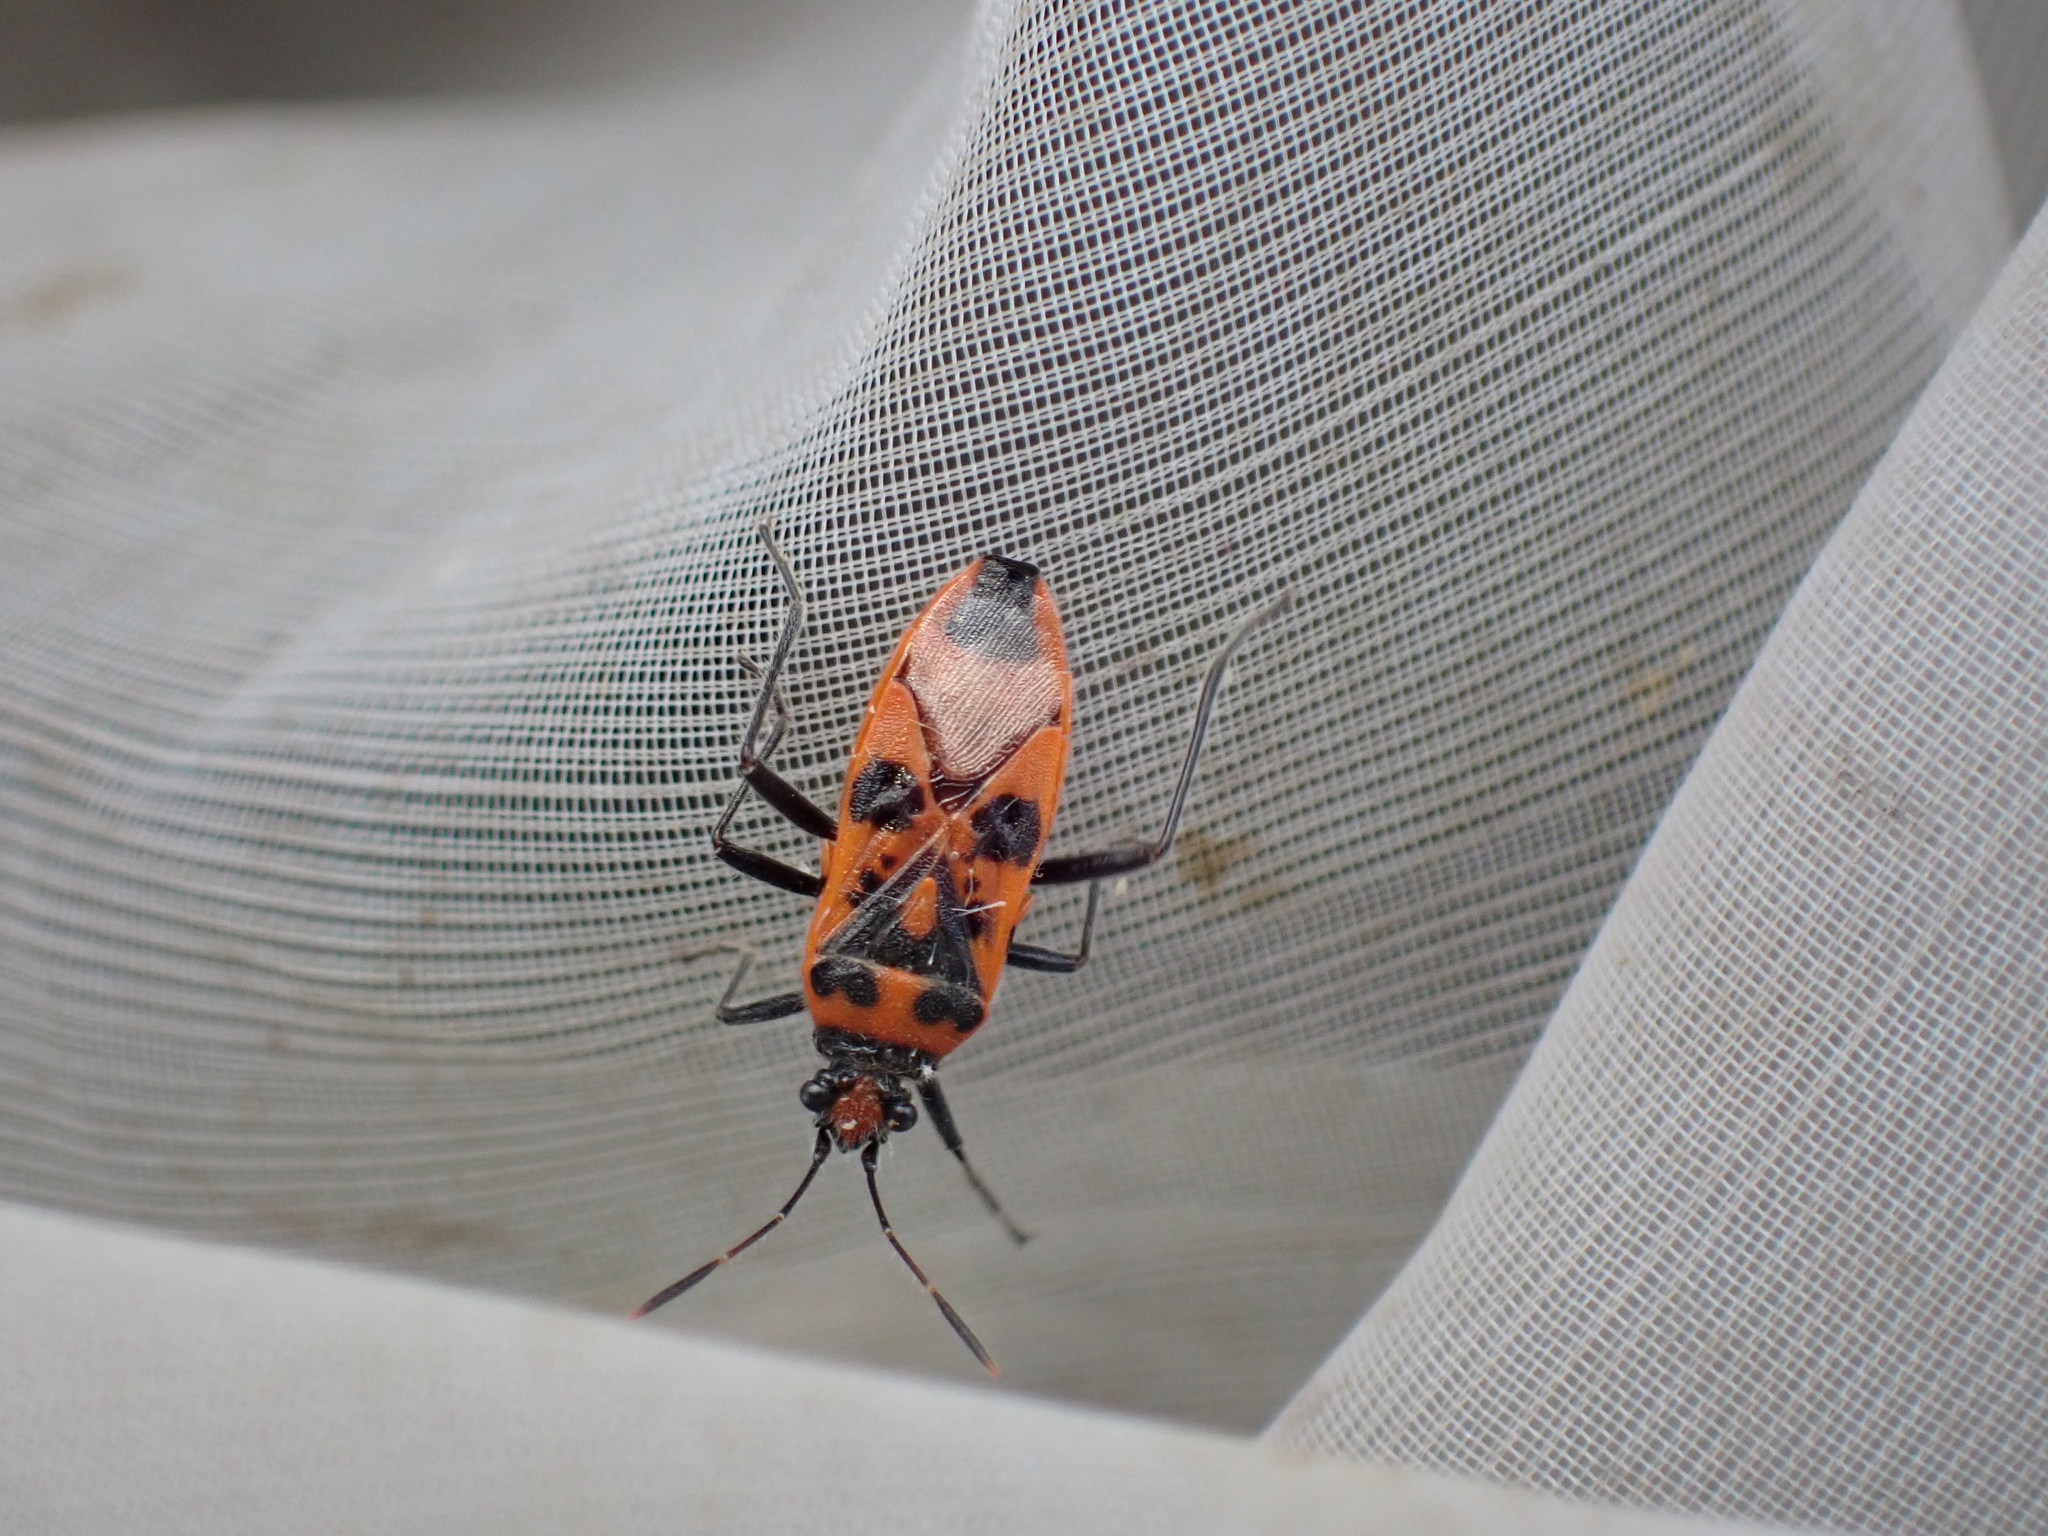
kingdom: Animalia
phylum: Arthropoda
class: Insecta
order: Hemiptera
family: Rhopalidae
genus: Corizus
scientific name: Corizus hyoscyami
